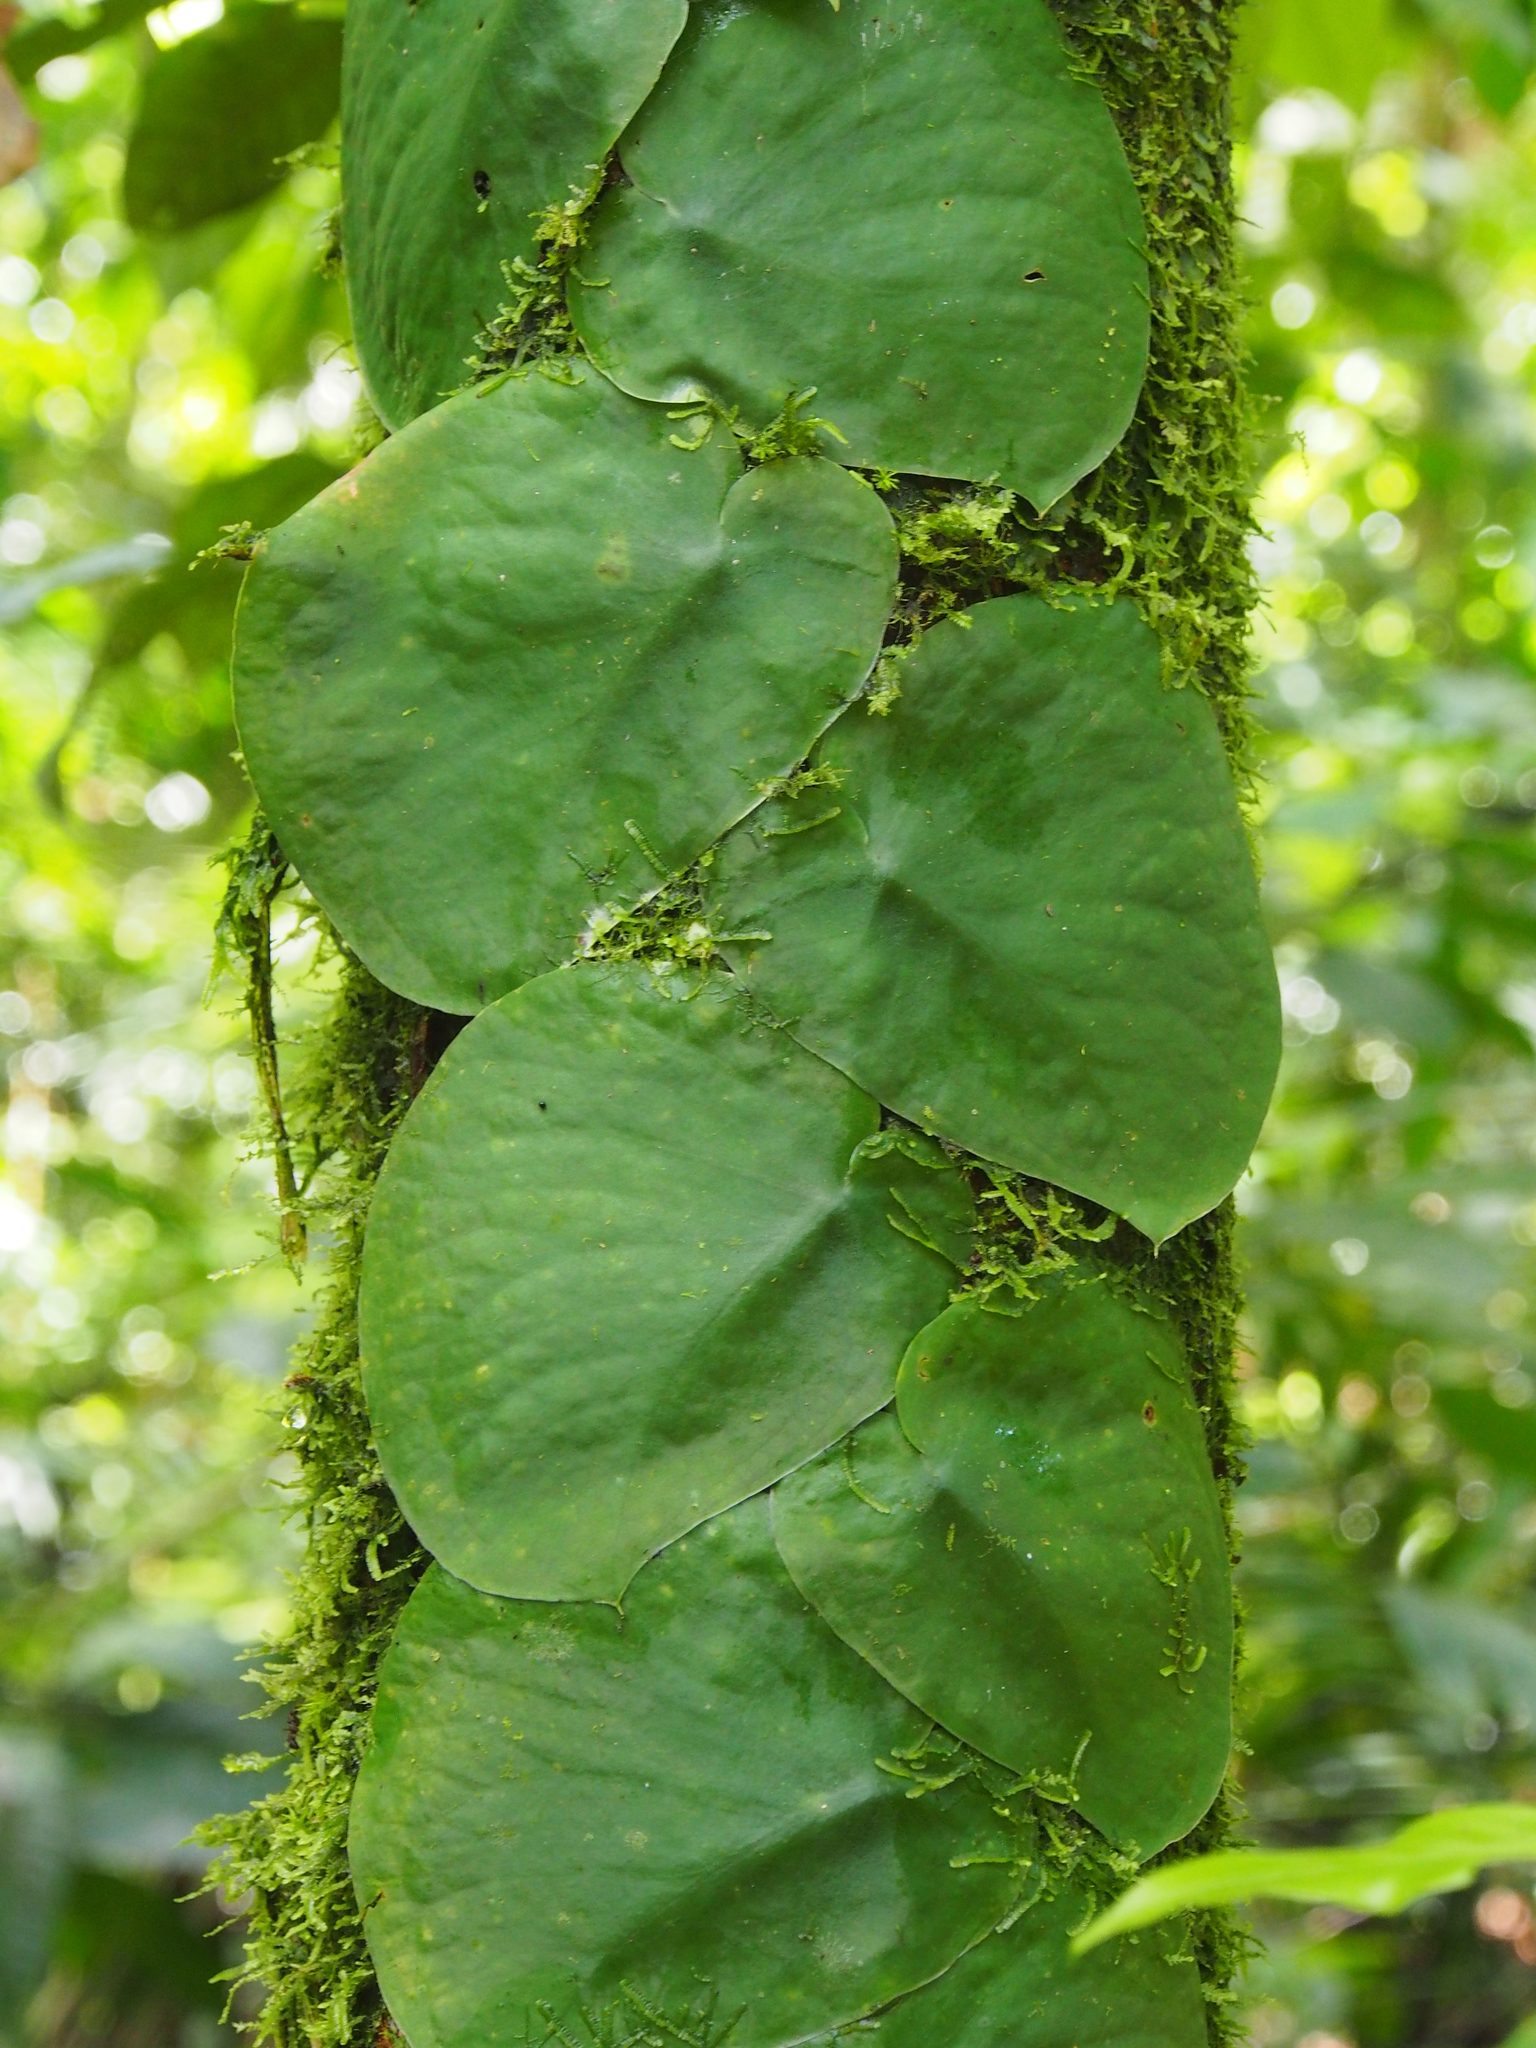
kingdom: Plantae
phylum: Tracheophyta
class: Liliopsida
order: Alismatales
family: Araceae
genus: Monstera
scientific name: Monstera tenuis
